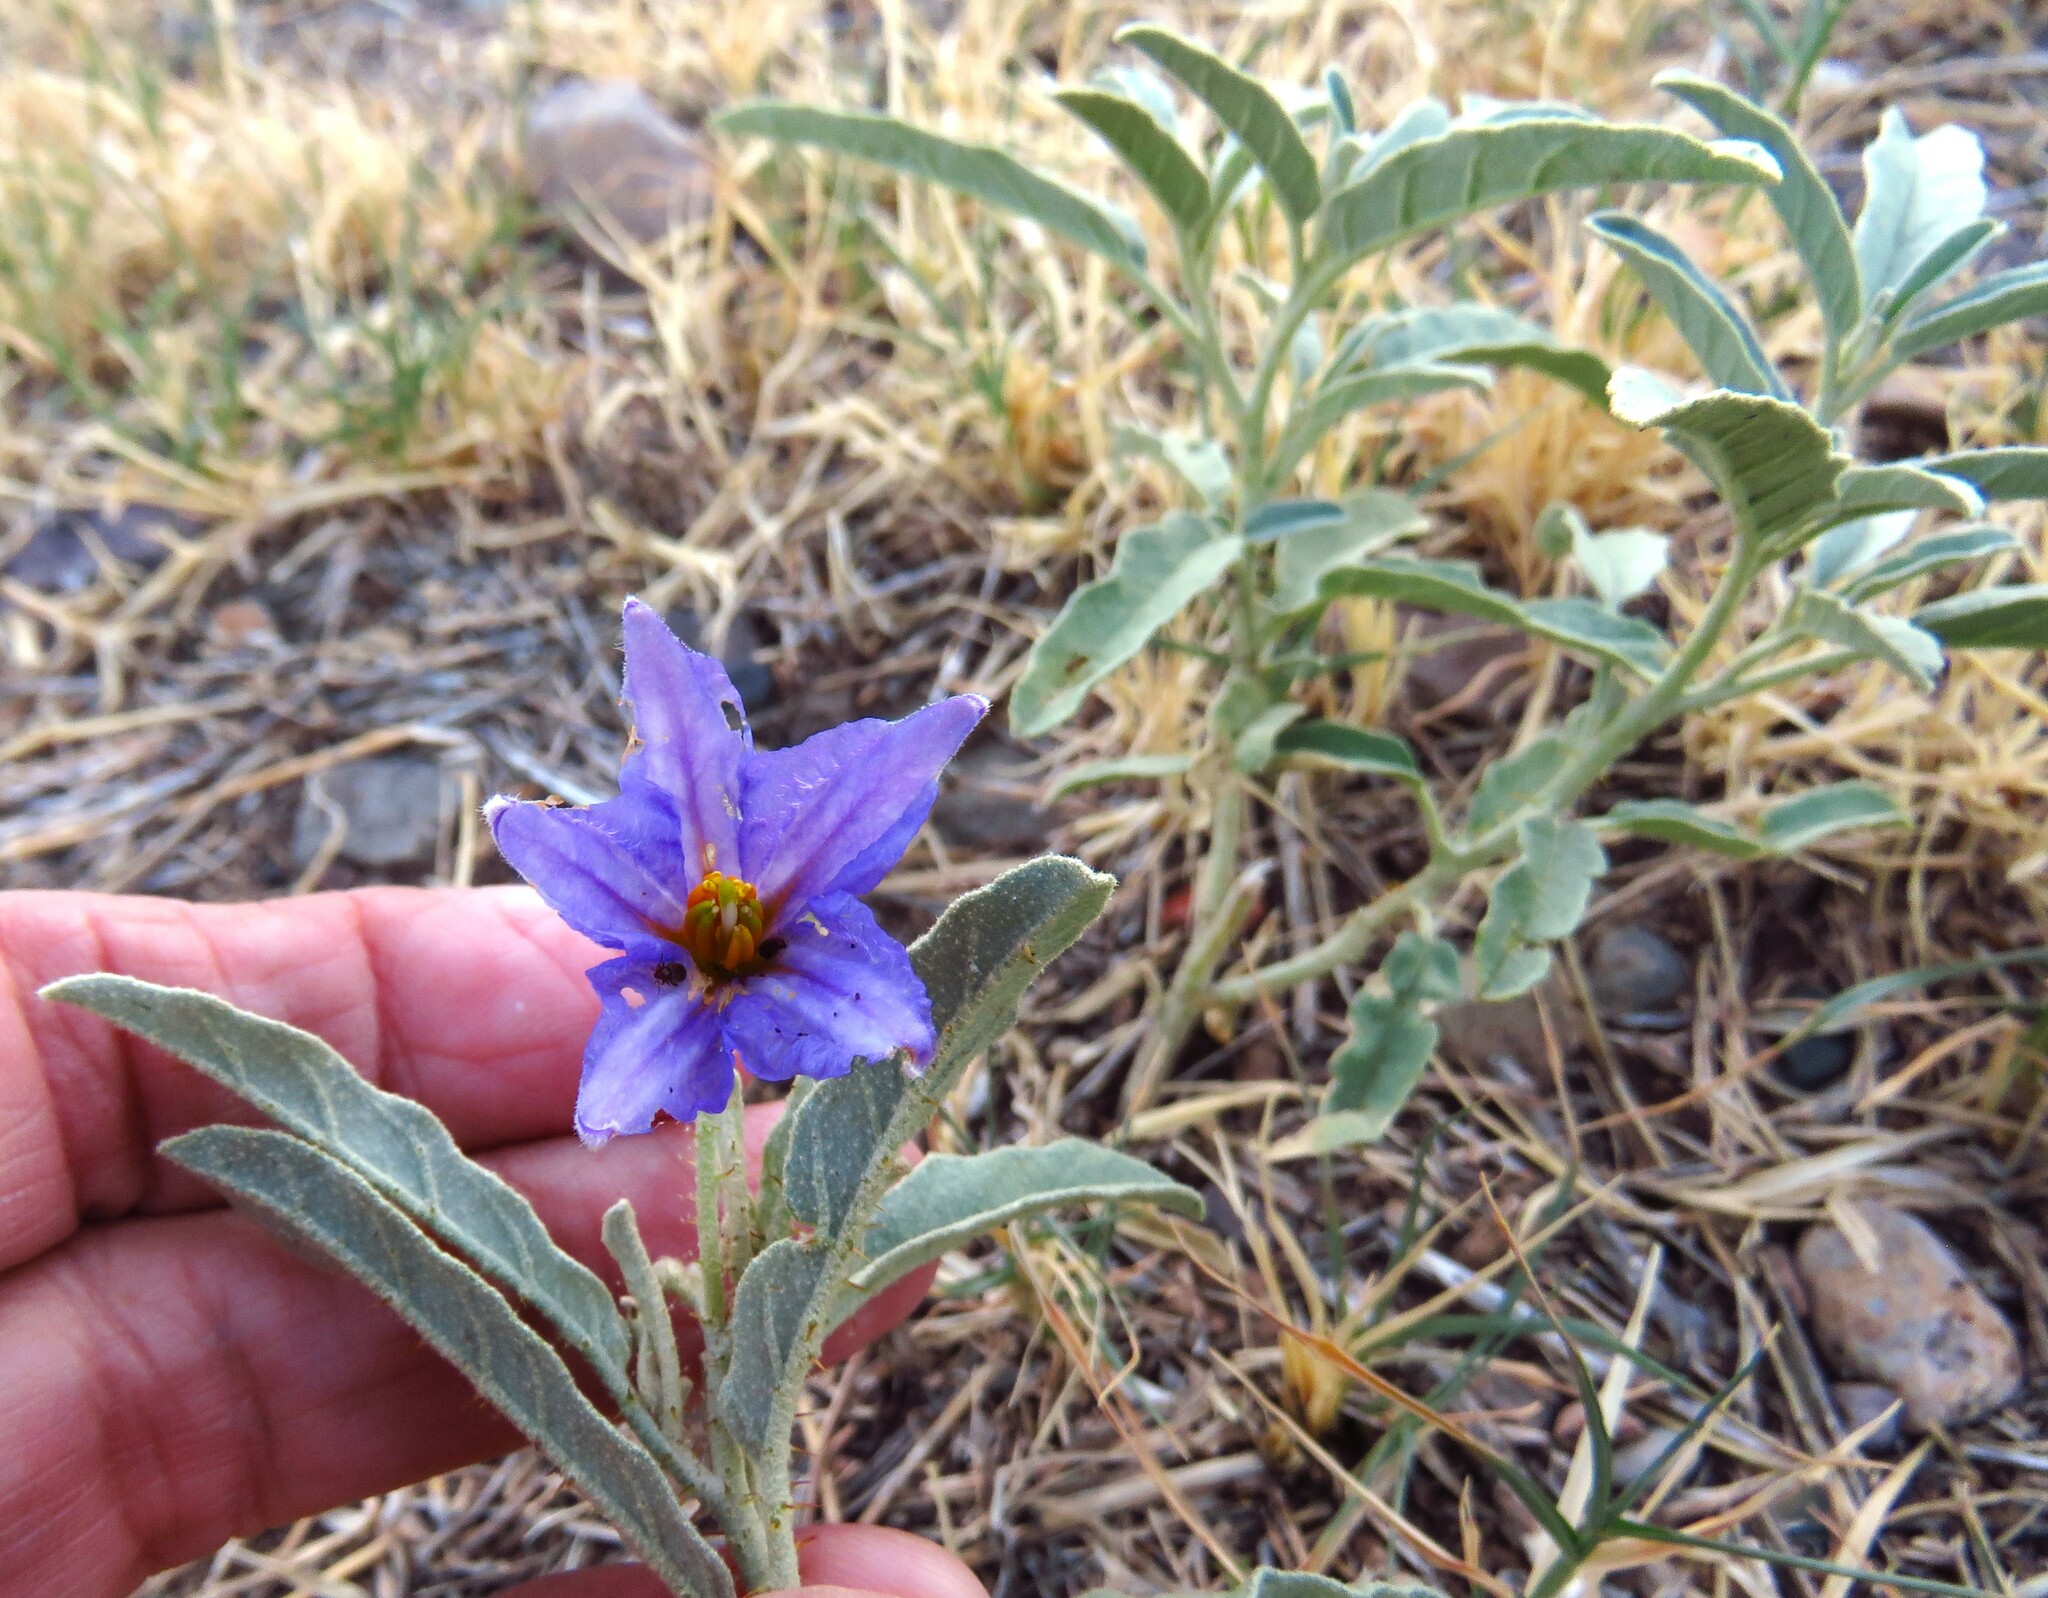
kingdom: Plantae
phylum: Tracheophyta
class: Magnoliopsida
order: Solanales
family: Solanaceae
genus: Solanum
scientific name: Solanum elaeagnifolium
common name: Silverleaf nightshade
